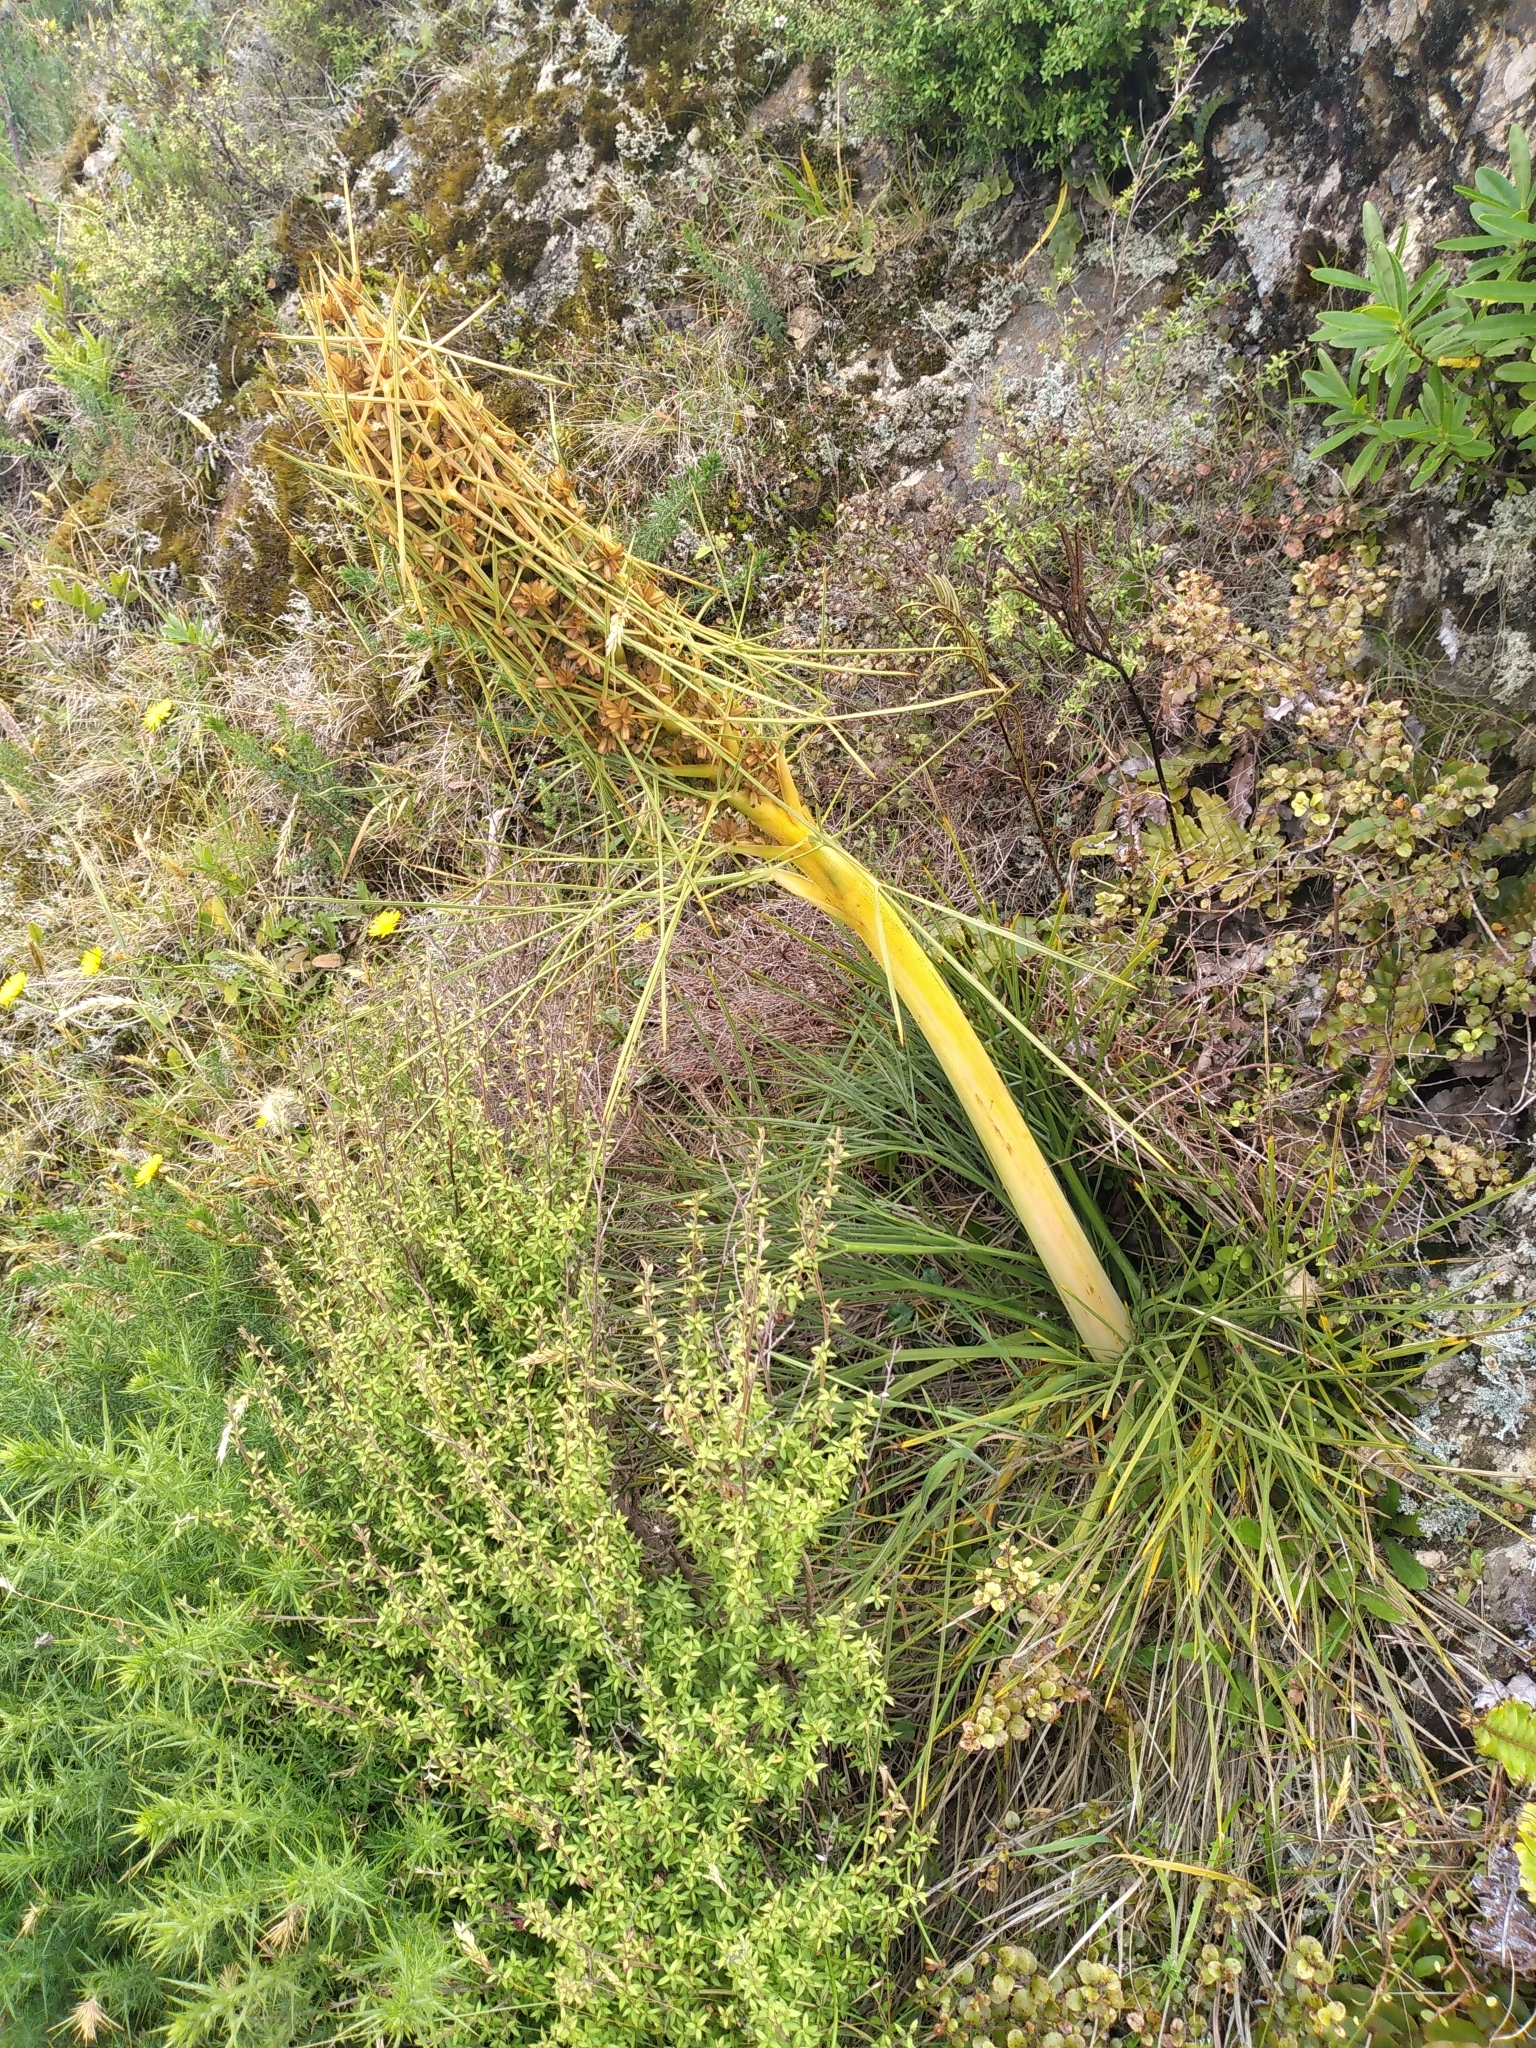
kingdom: Plantae
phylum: Tracheophyta
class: Magnoliopsida
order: Apiales
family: Apiaceae
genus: Aciphylla
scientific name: Aciphylla squarrosa
